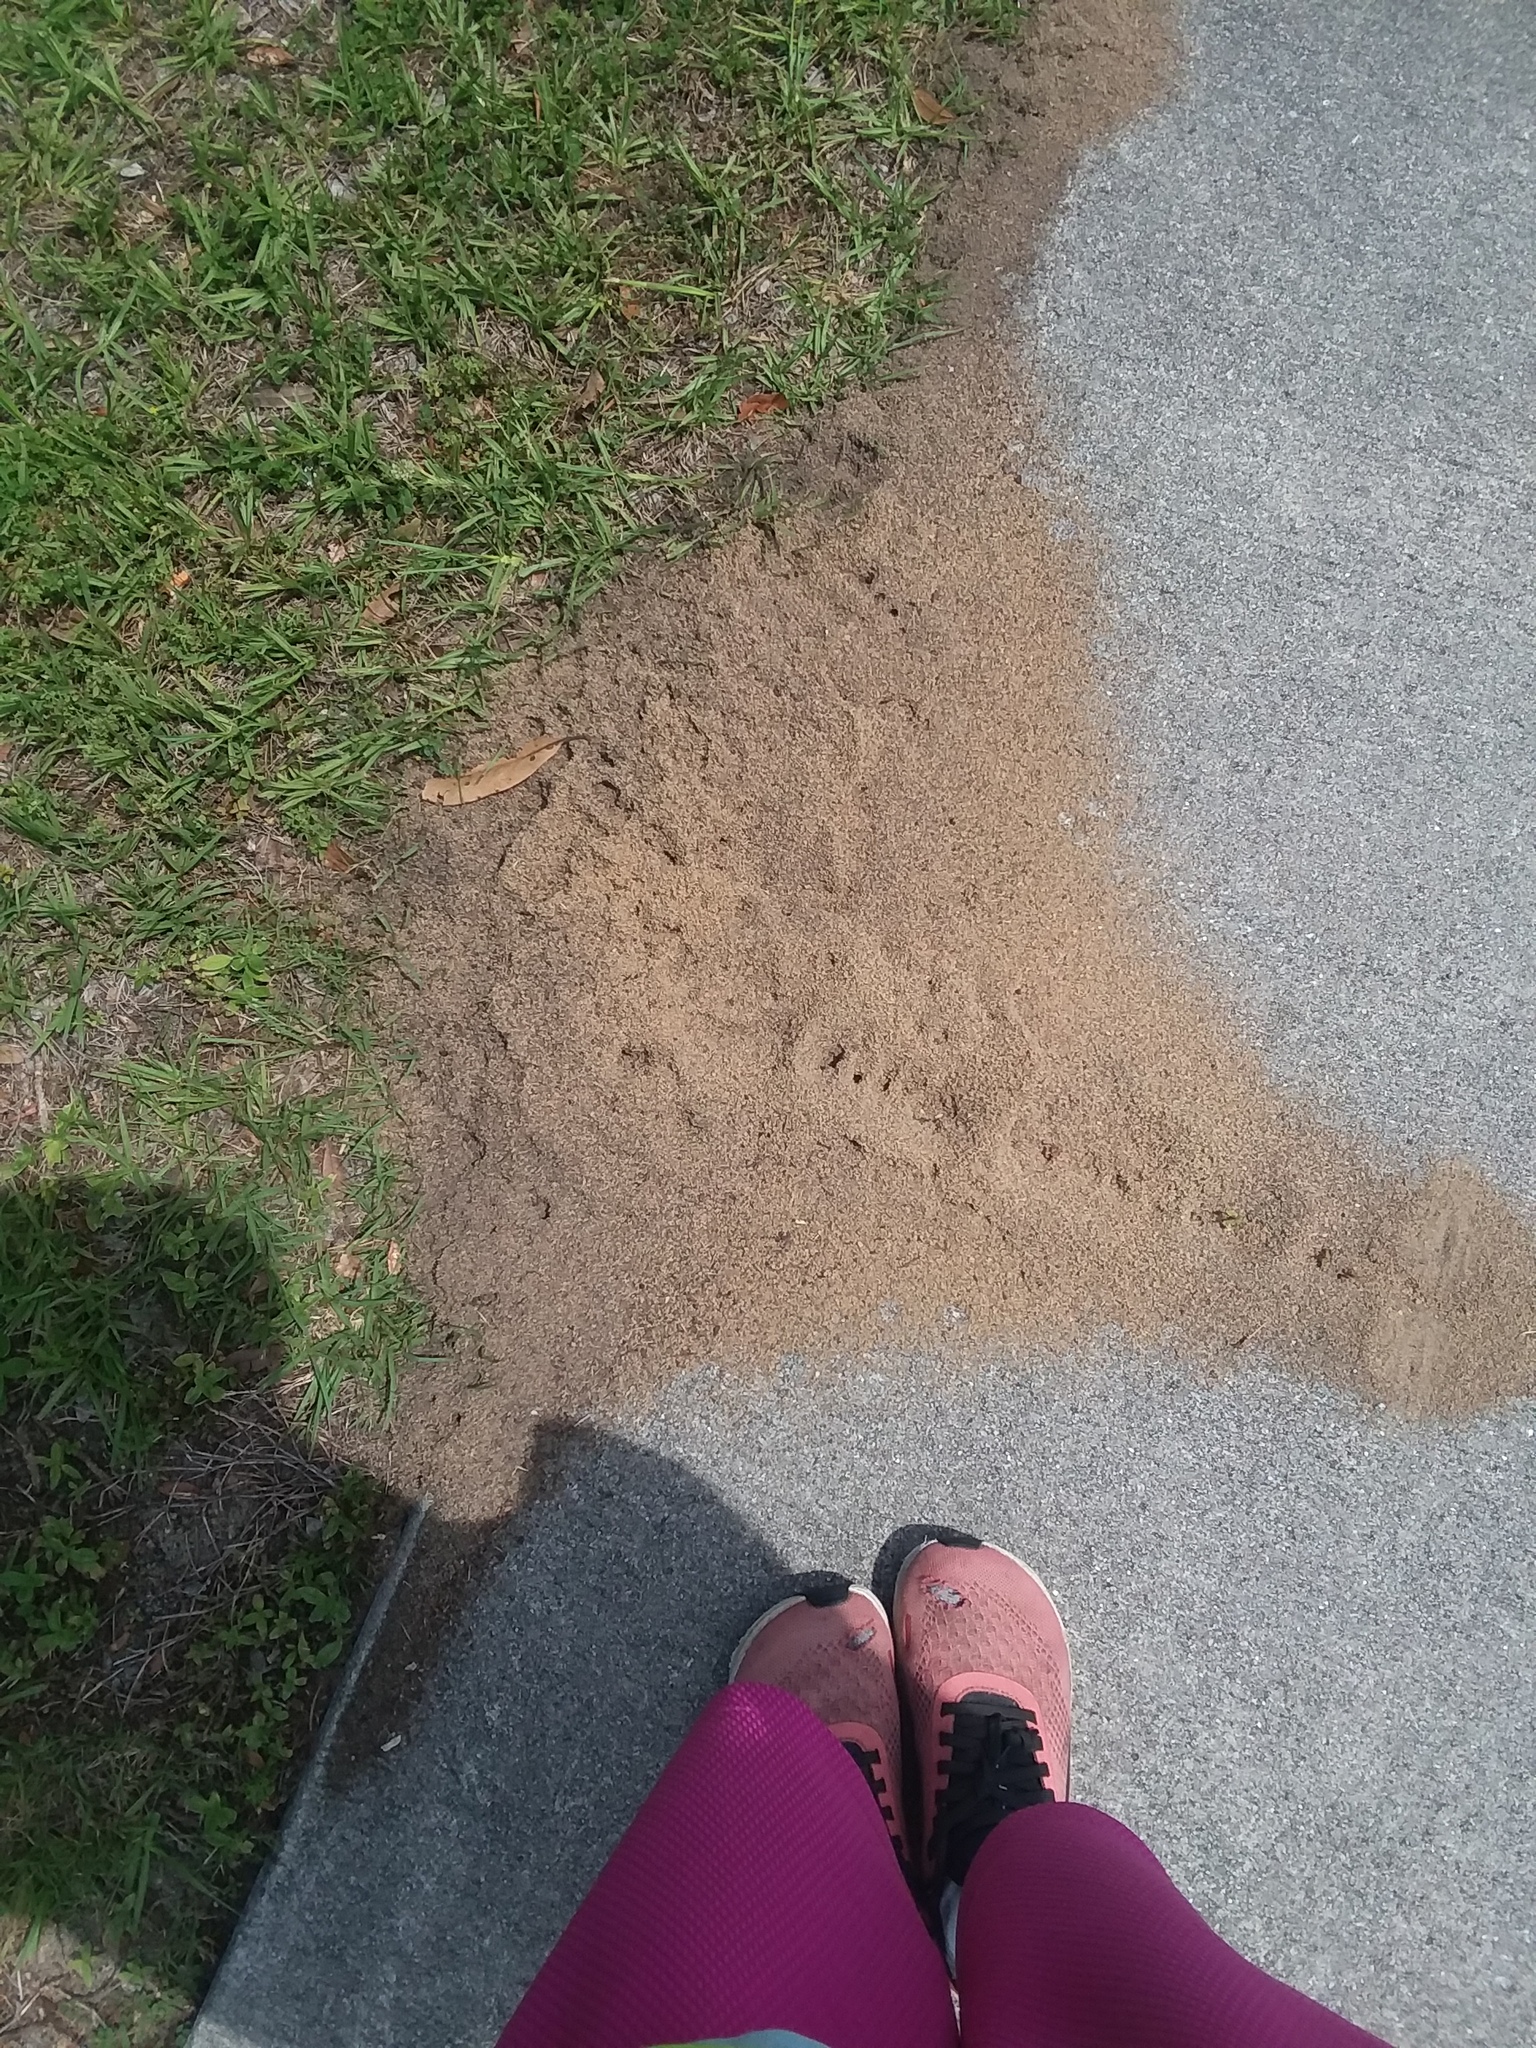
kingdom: Animalia
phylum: Arthropoda
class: Insecta
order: Hymenoptera
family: Formicidae
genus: Solenopsis
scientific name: Solenopsis invicta
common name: Red imported fire ant
